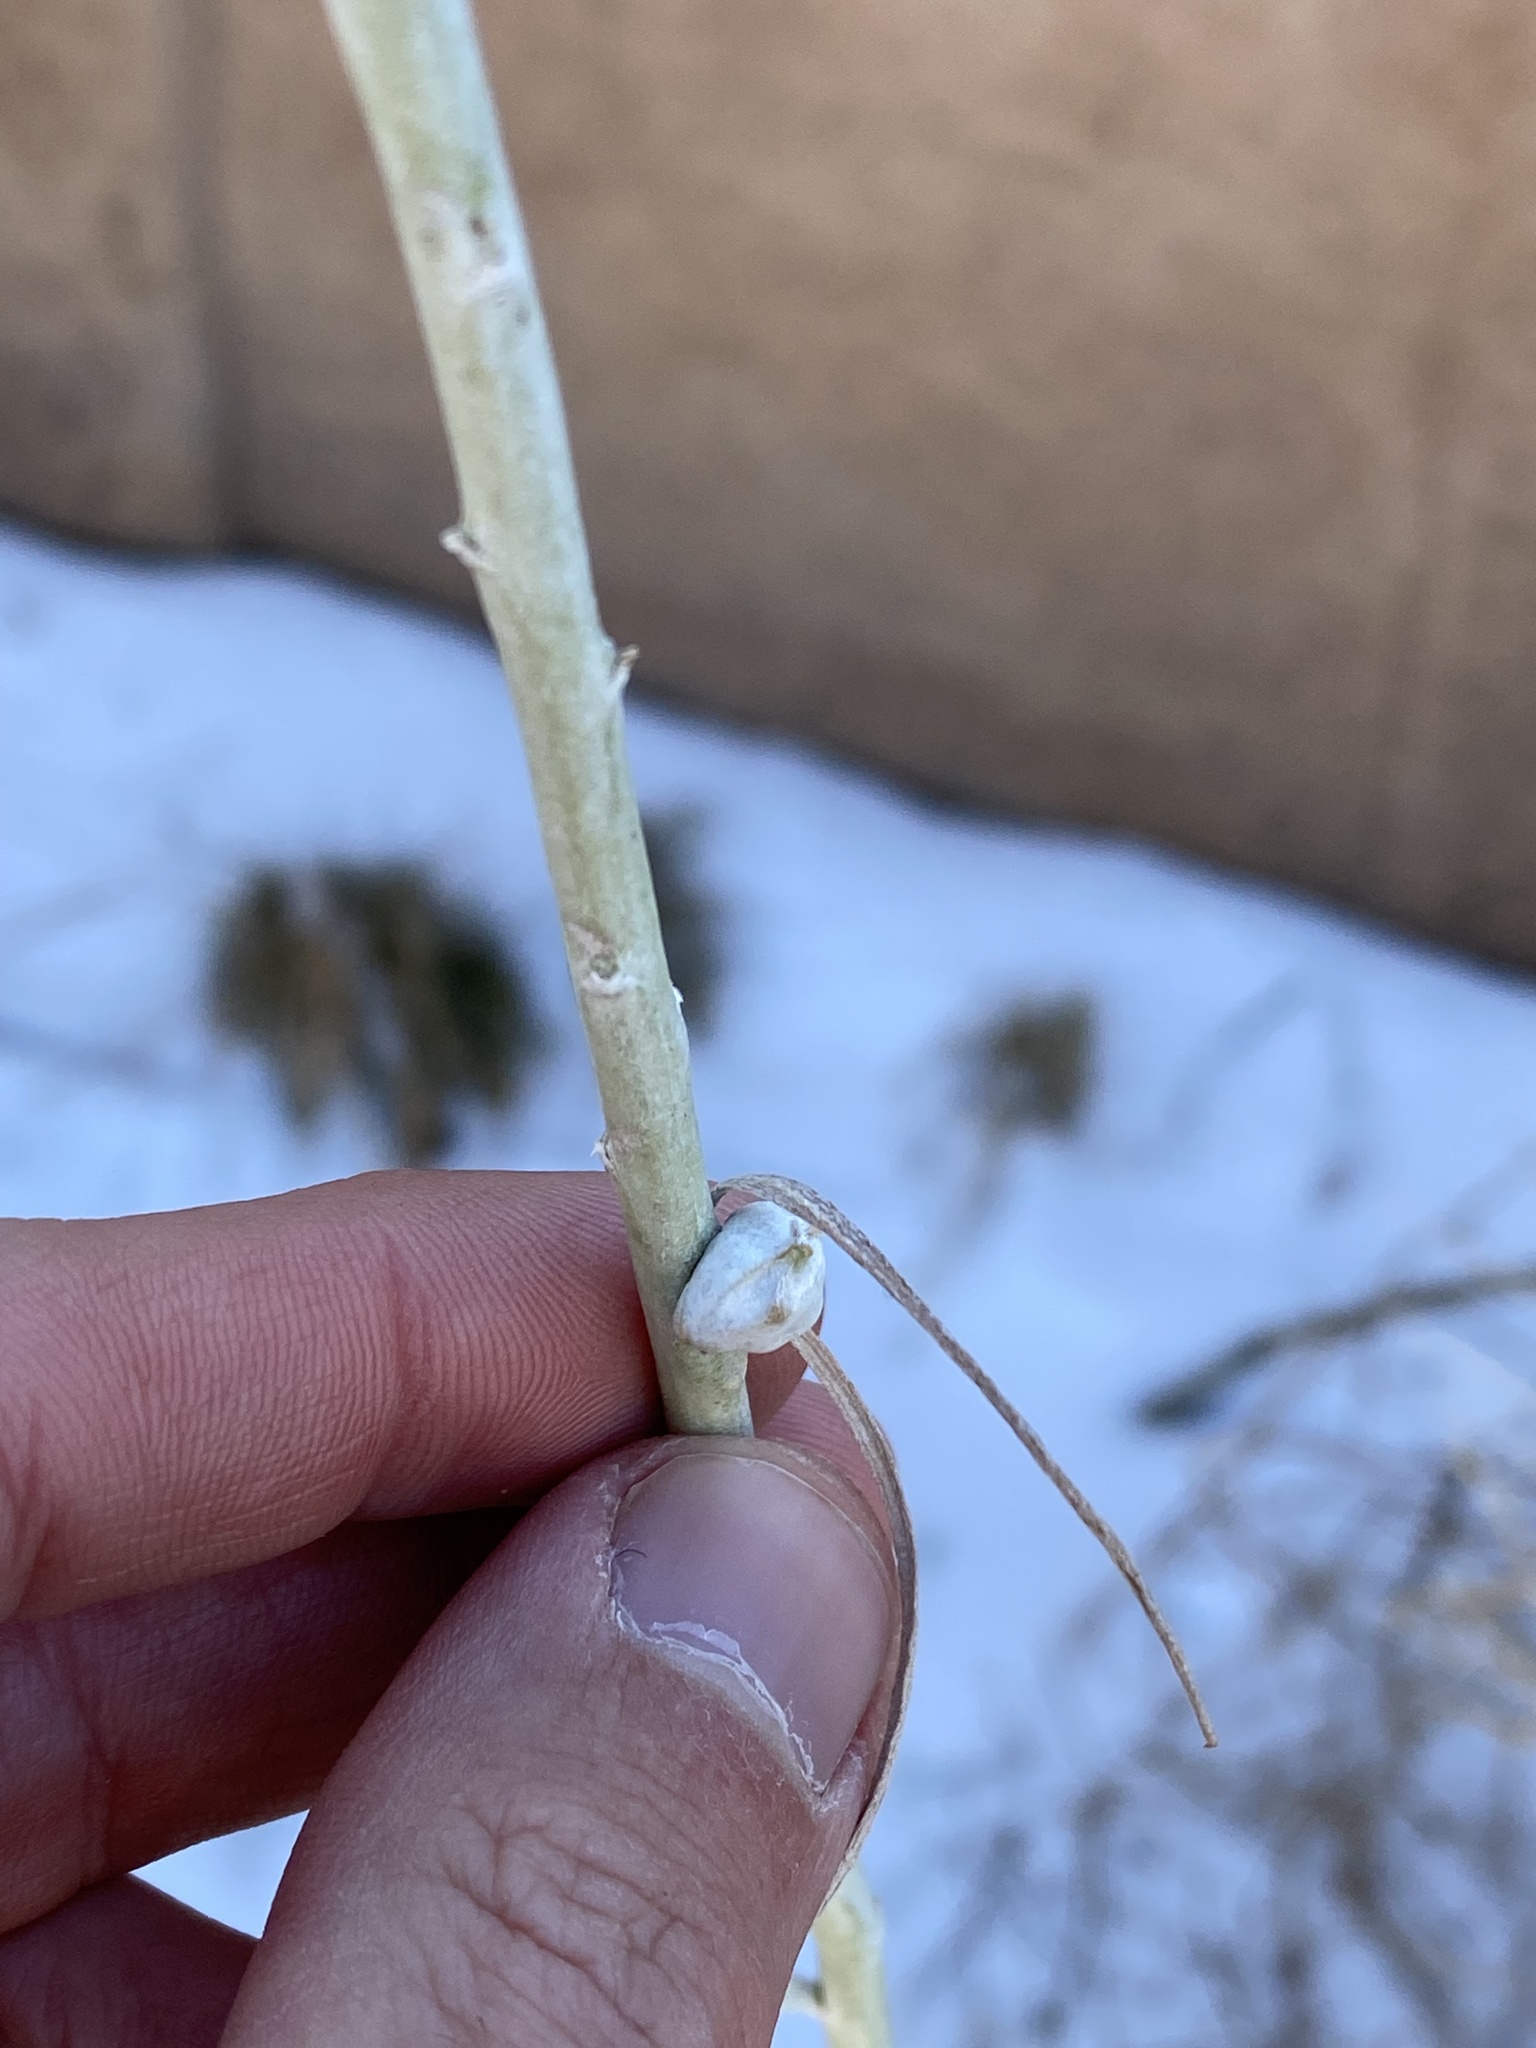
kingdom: Animalia
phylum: Arthropoda
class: Insecta
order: Diptera
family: Tephritidae
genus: Aciurina
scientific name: Aciurina trixa
